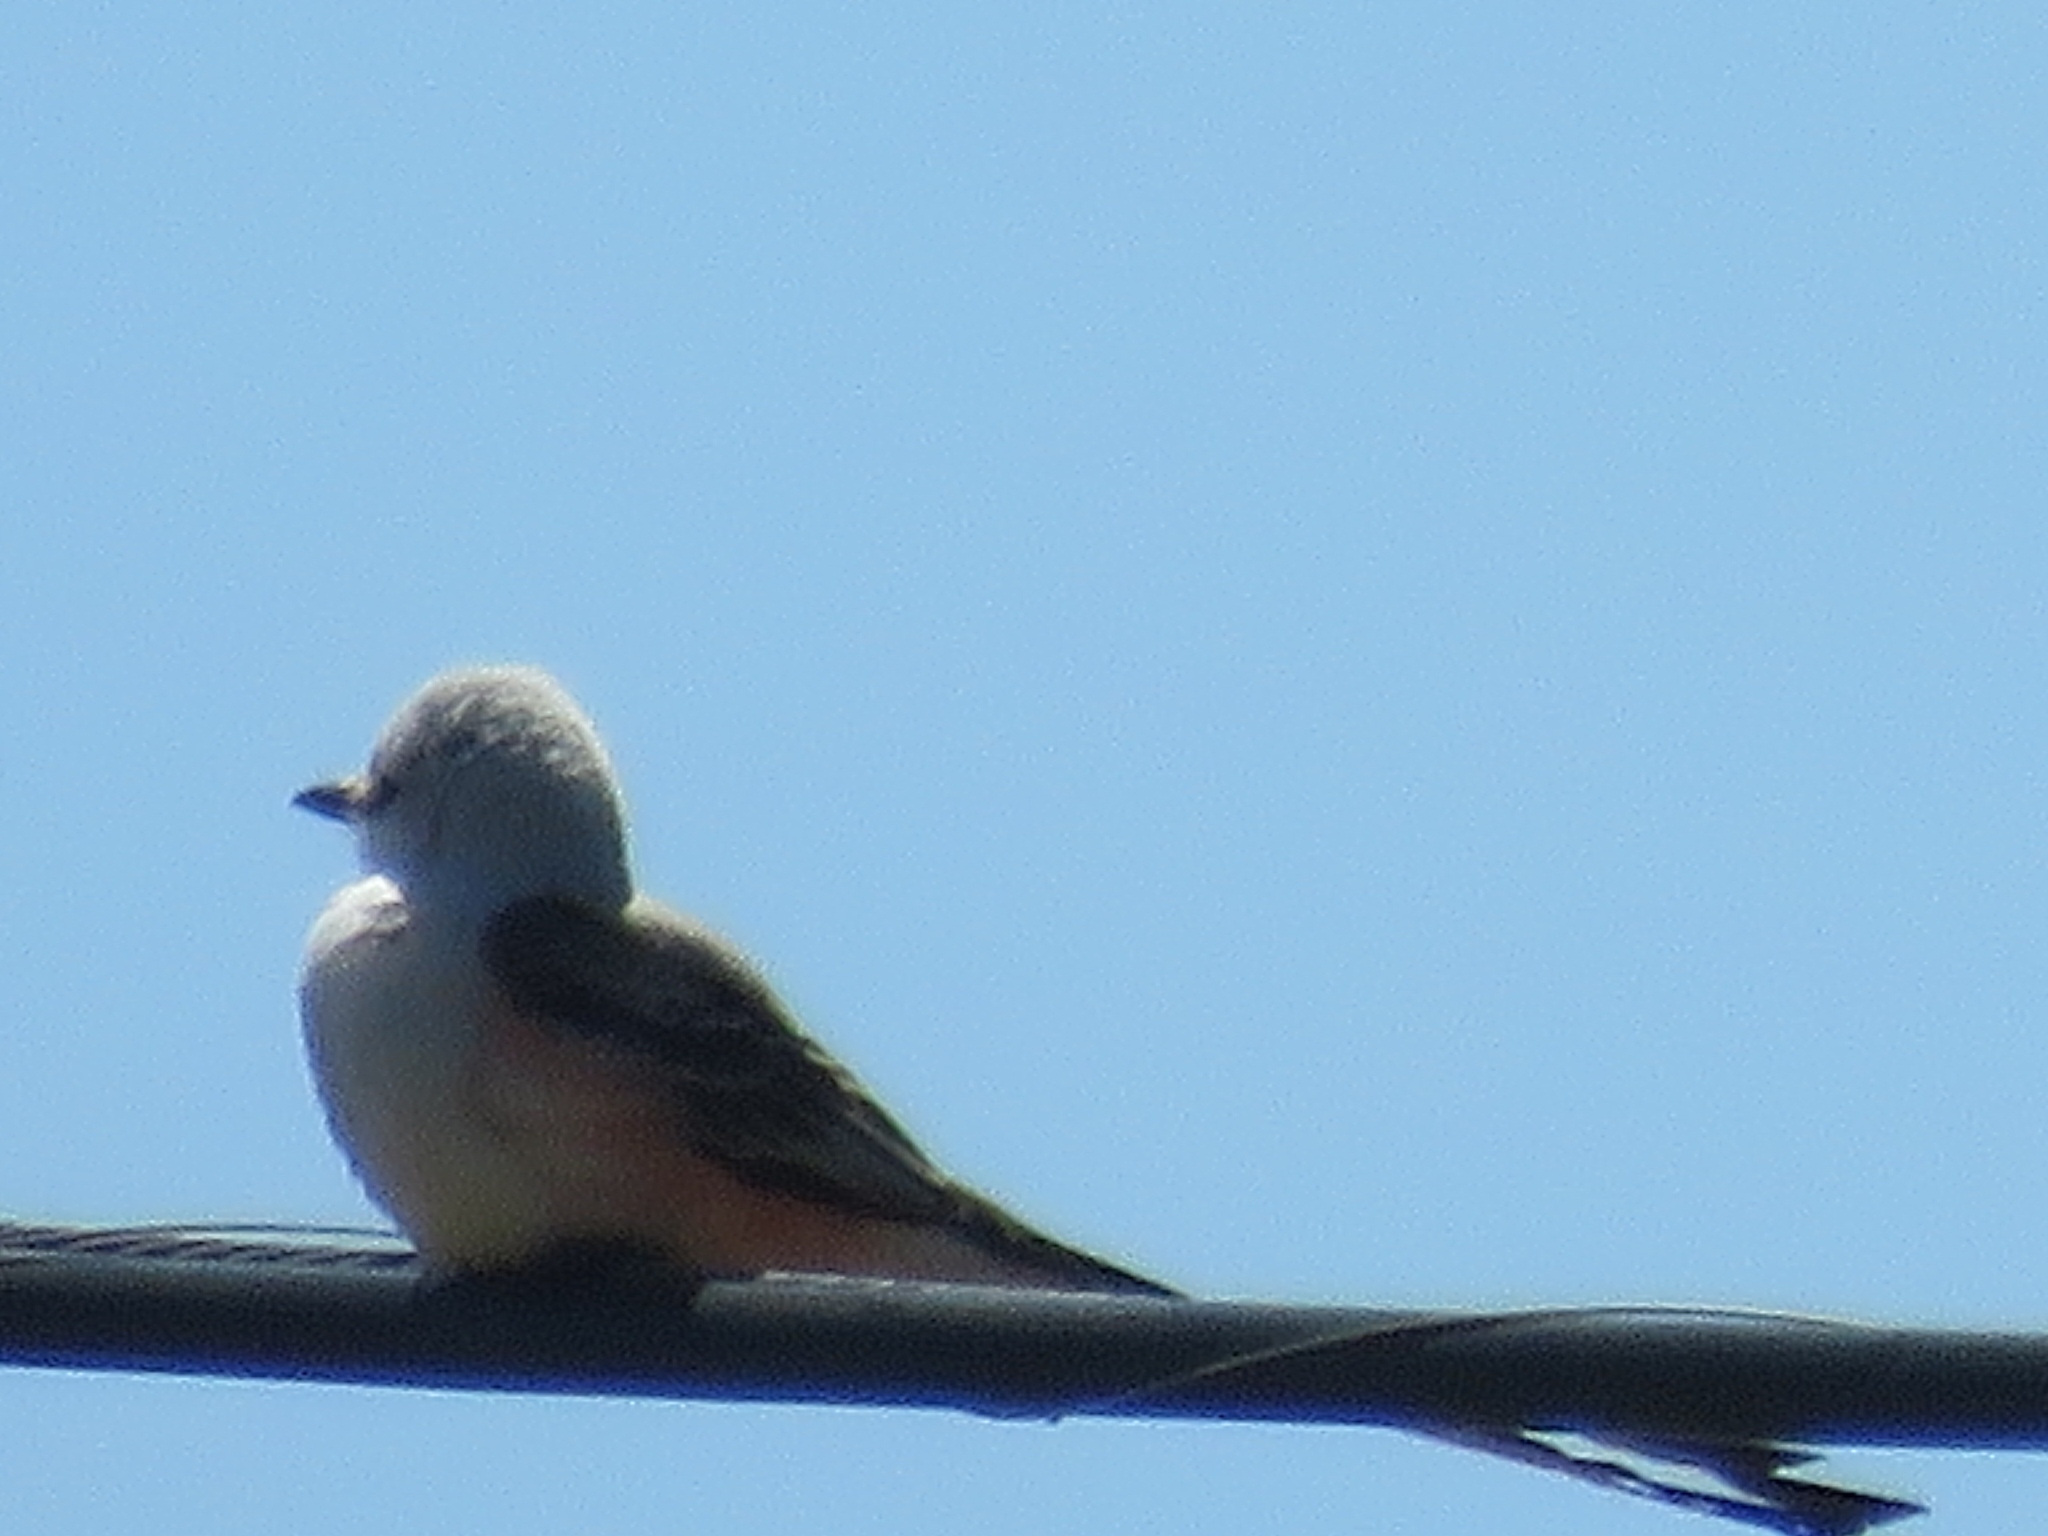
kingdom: Animalia
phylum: Chordata
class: Aves
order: Passeriformes
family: Tyrannidae
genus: Tyrannus
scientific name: Tyrannus forficatus
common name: Scissor-tailed flycatcher
